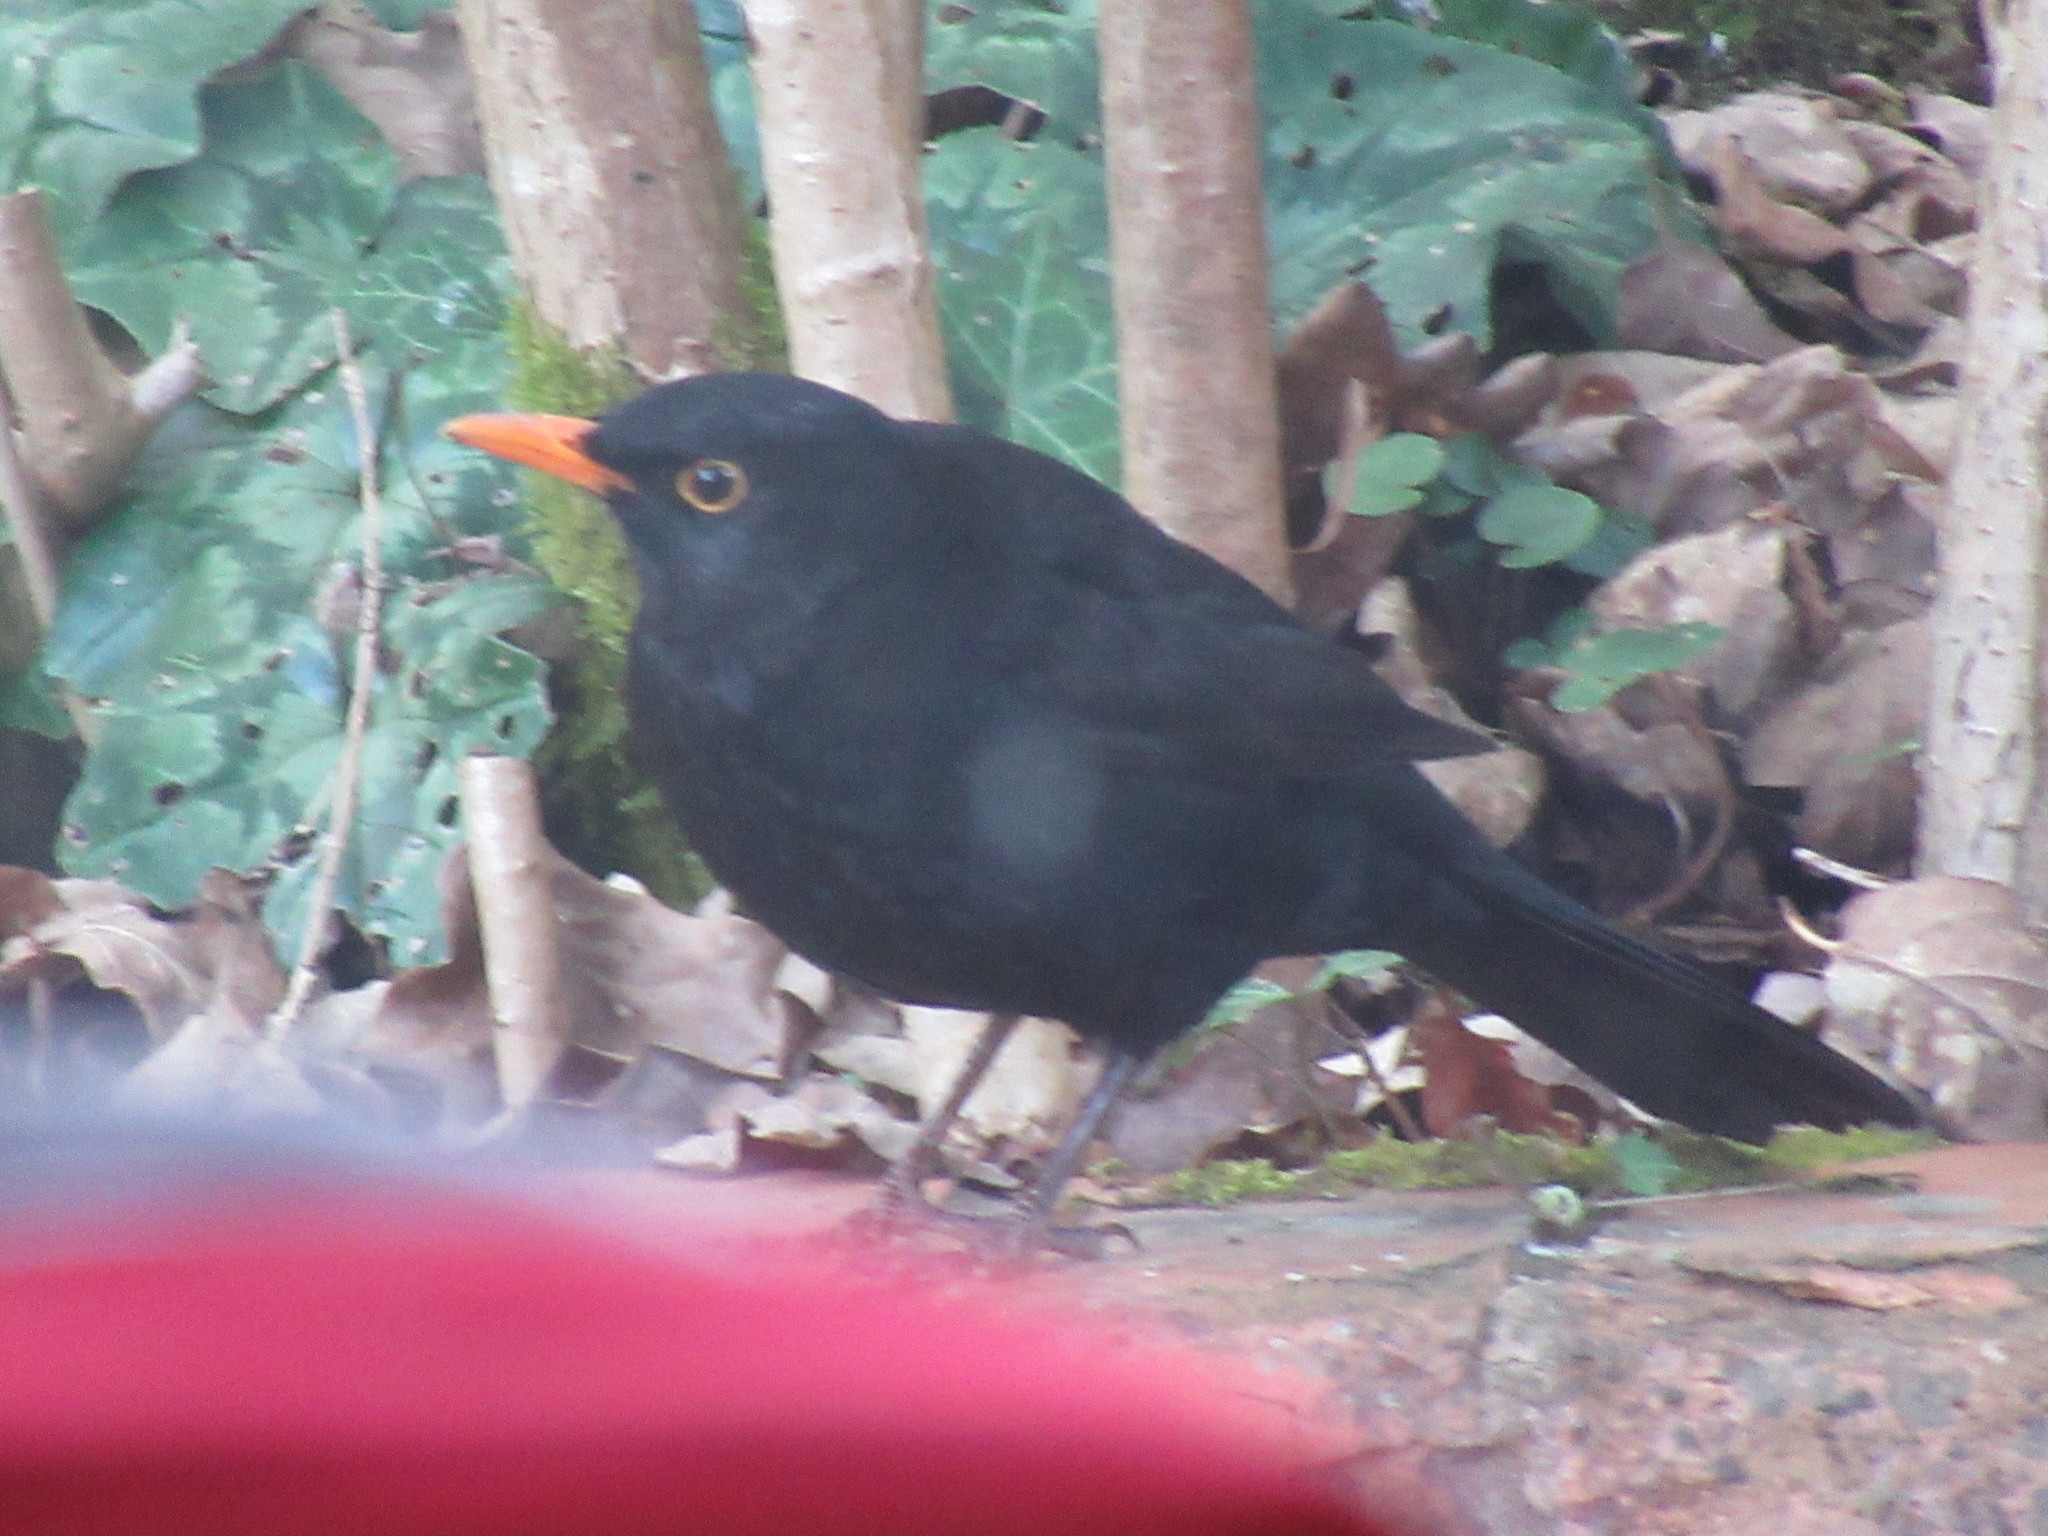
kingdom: Animalia
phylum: Chordata
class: Aves
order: Passeriformes
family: Turdidae
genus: Turdus
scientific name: Turdus merula
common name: Common blackbird
